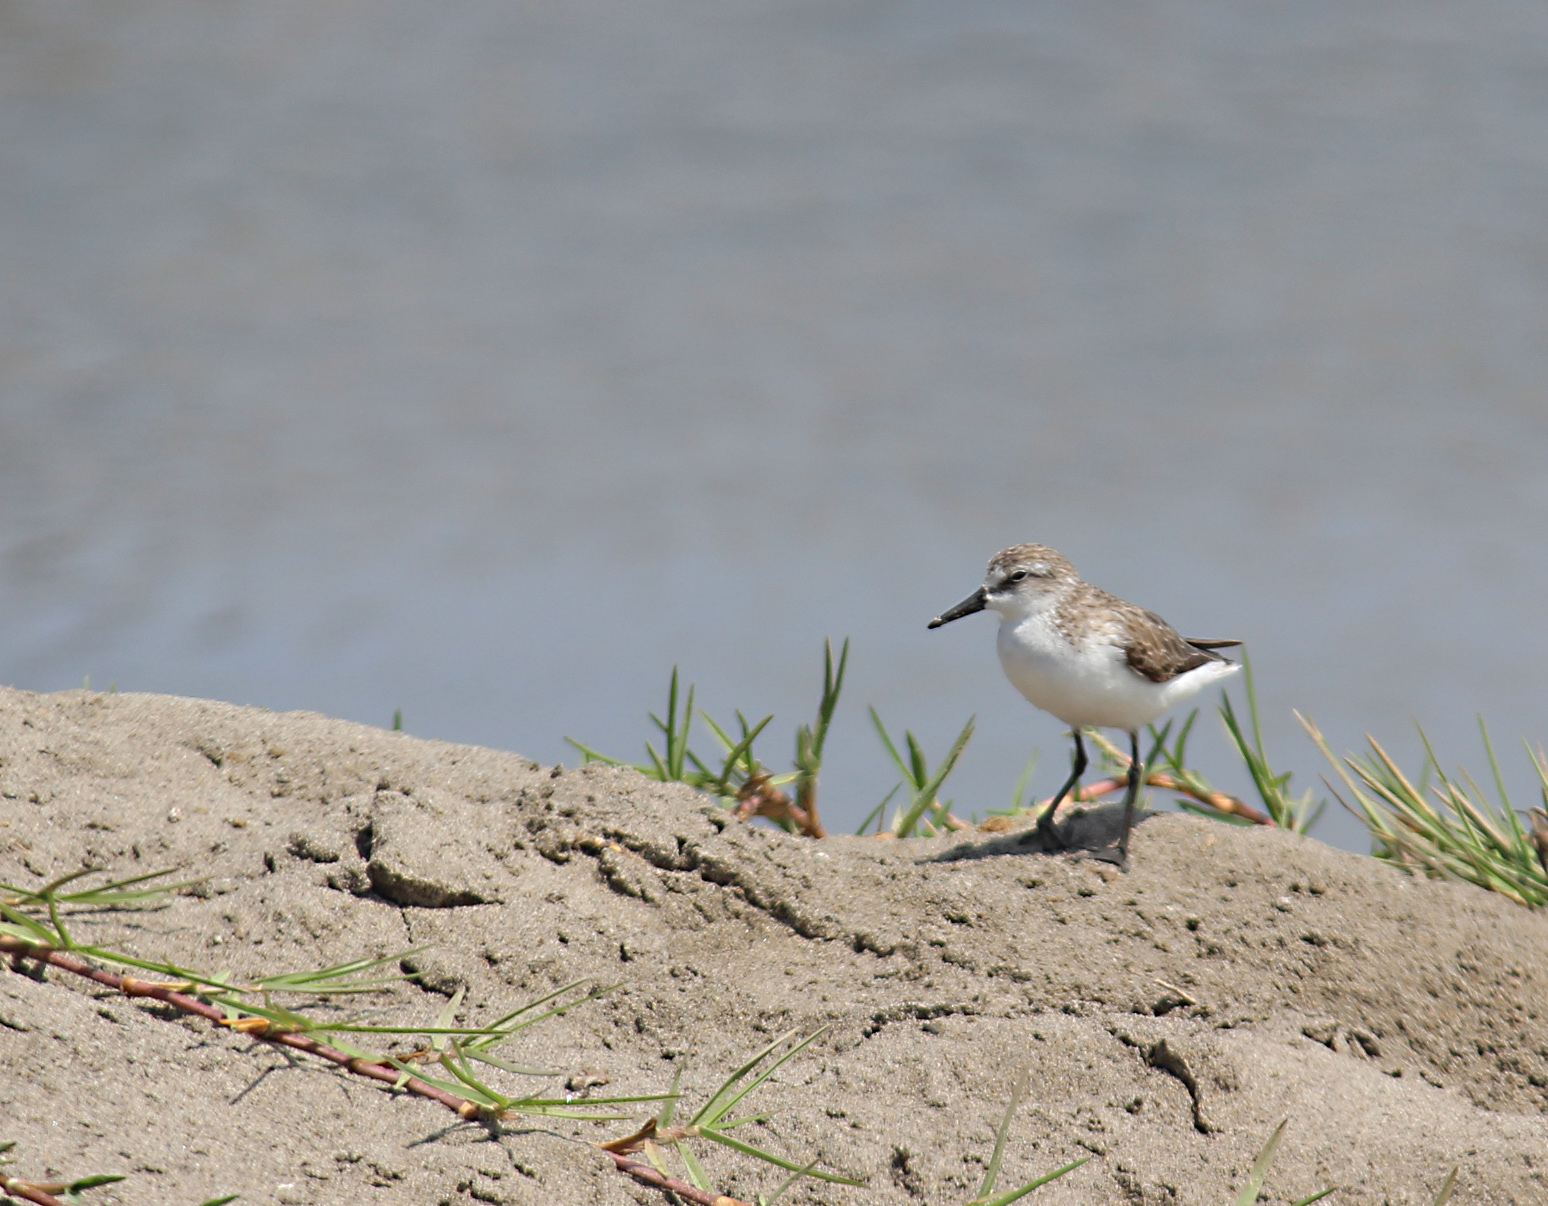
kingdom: Animalia
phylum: Chordata
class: Aves
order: Charadriiformes
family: Scolopacidae
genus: Calidris
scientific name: Calidris pusilla
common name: Semipalmated sandpiper
